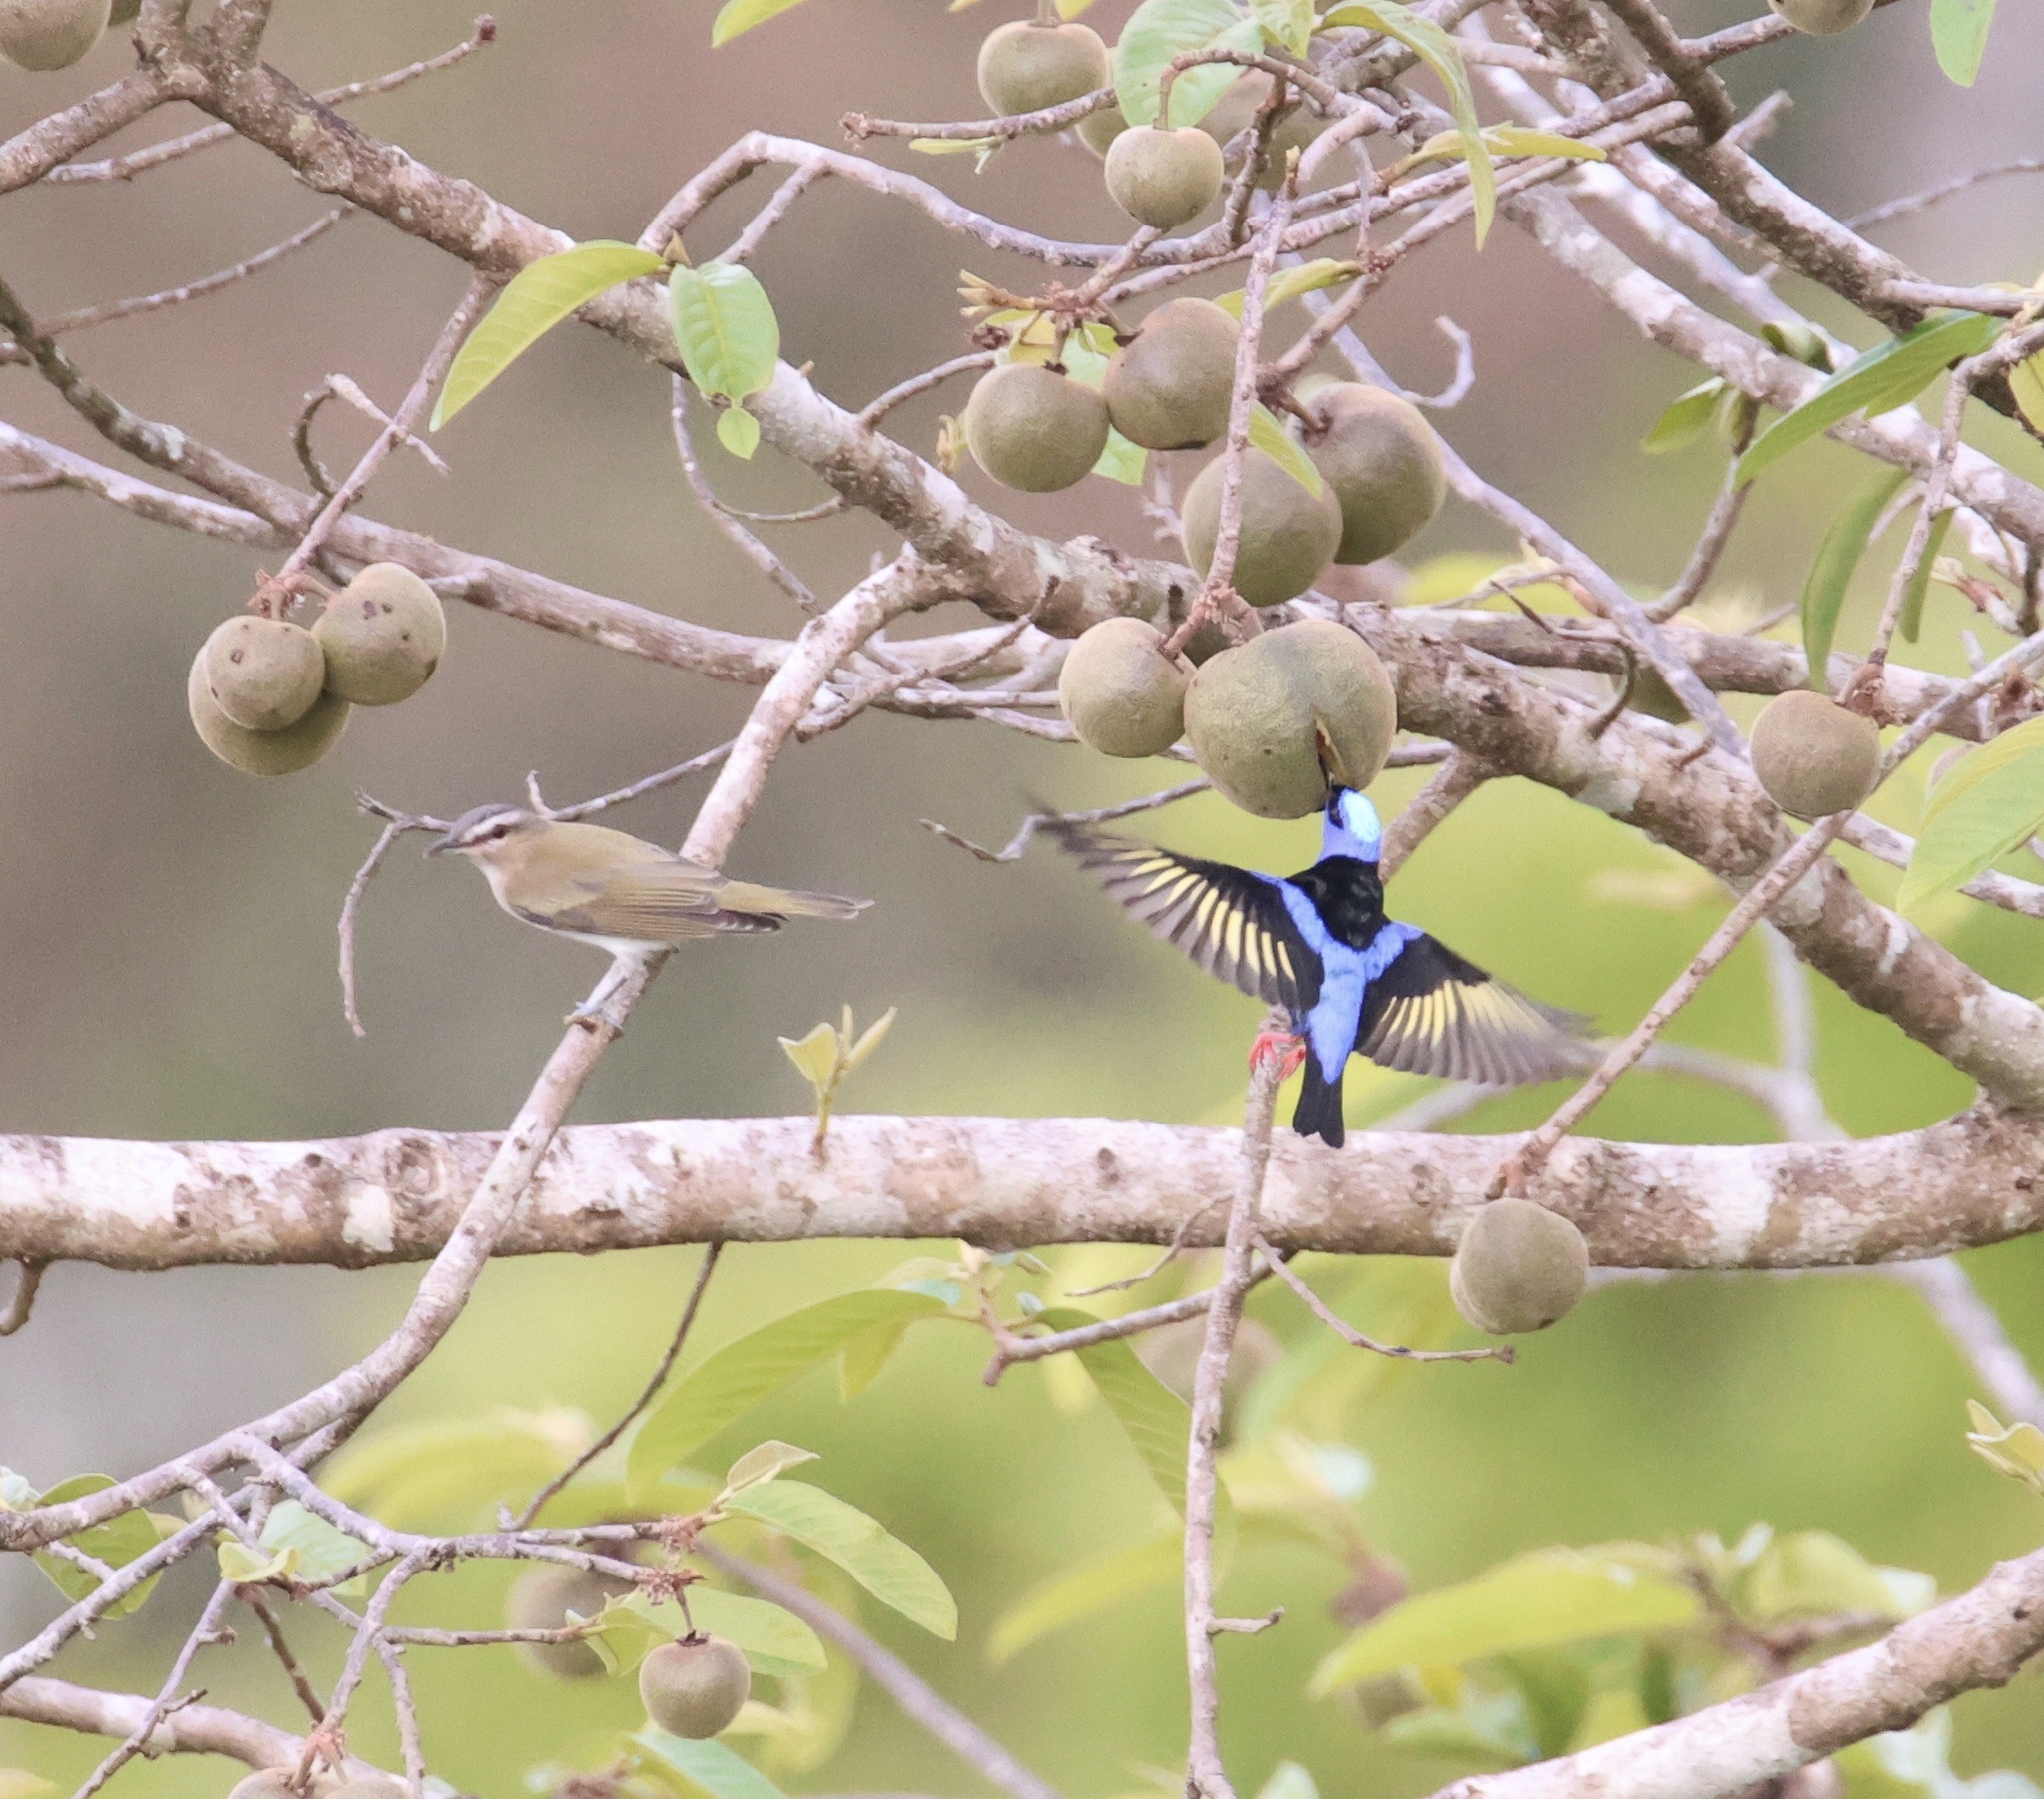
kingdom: Animalia
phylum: Chordata
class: Aves
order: Passeriformes
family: Vireonidae
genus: Vireo
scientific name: Vireo olivaceus
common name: Red-eyed vireo
